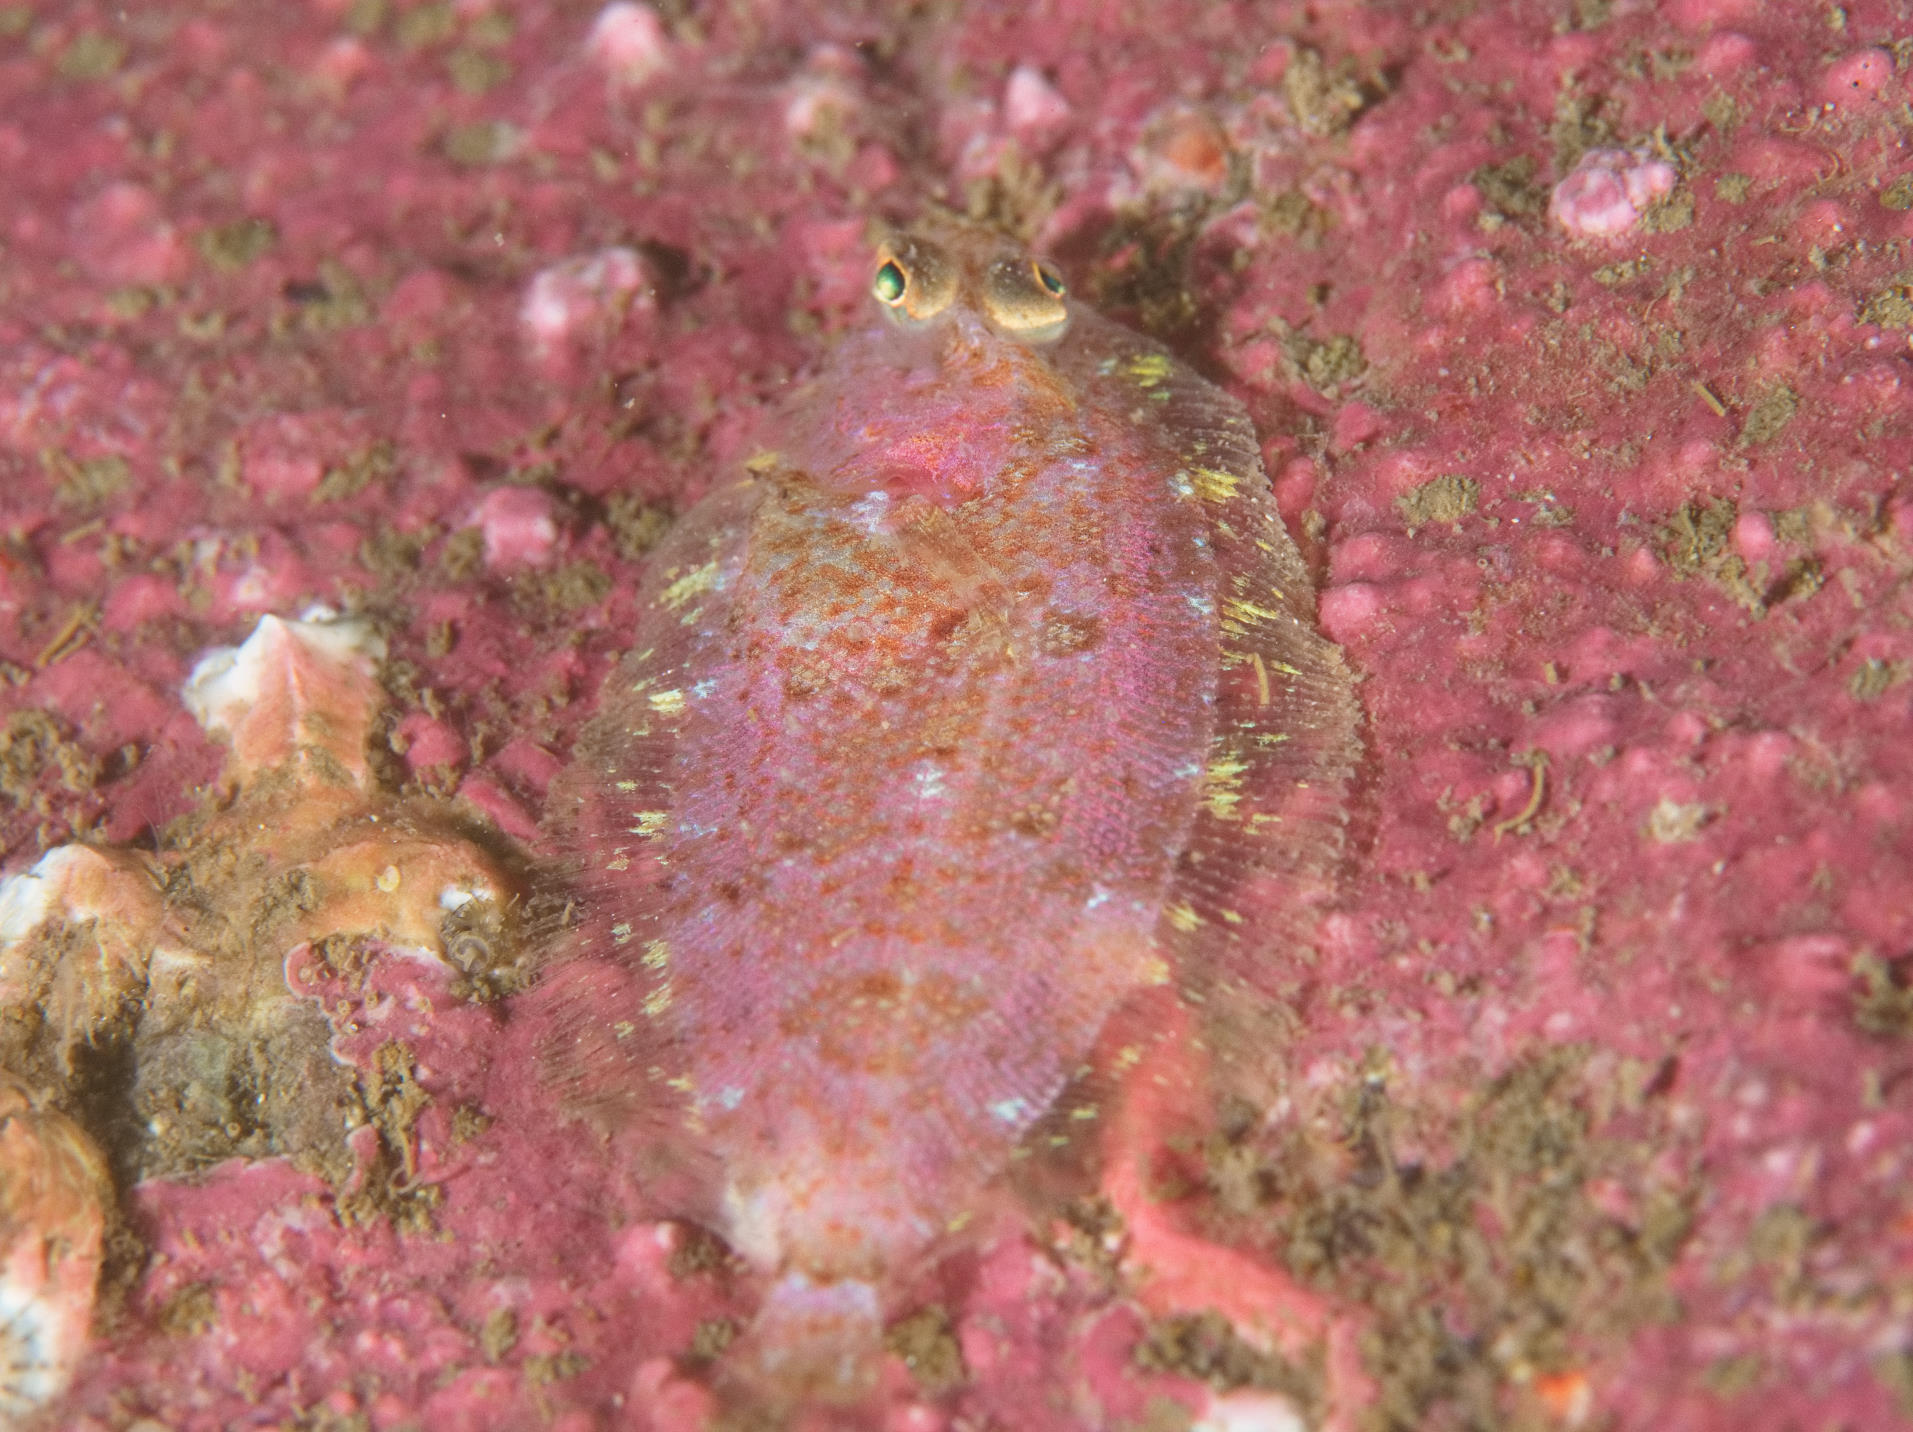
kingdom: Animalia
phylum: Chordata
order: Pleuronectiformes
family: Scophthalmidae
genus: Phrynorhombus
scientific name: Phrynorhombus norvegicus
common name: Norwegian topknot
